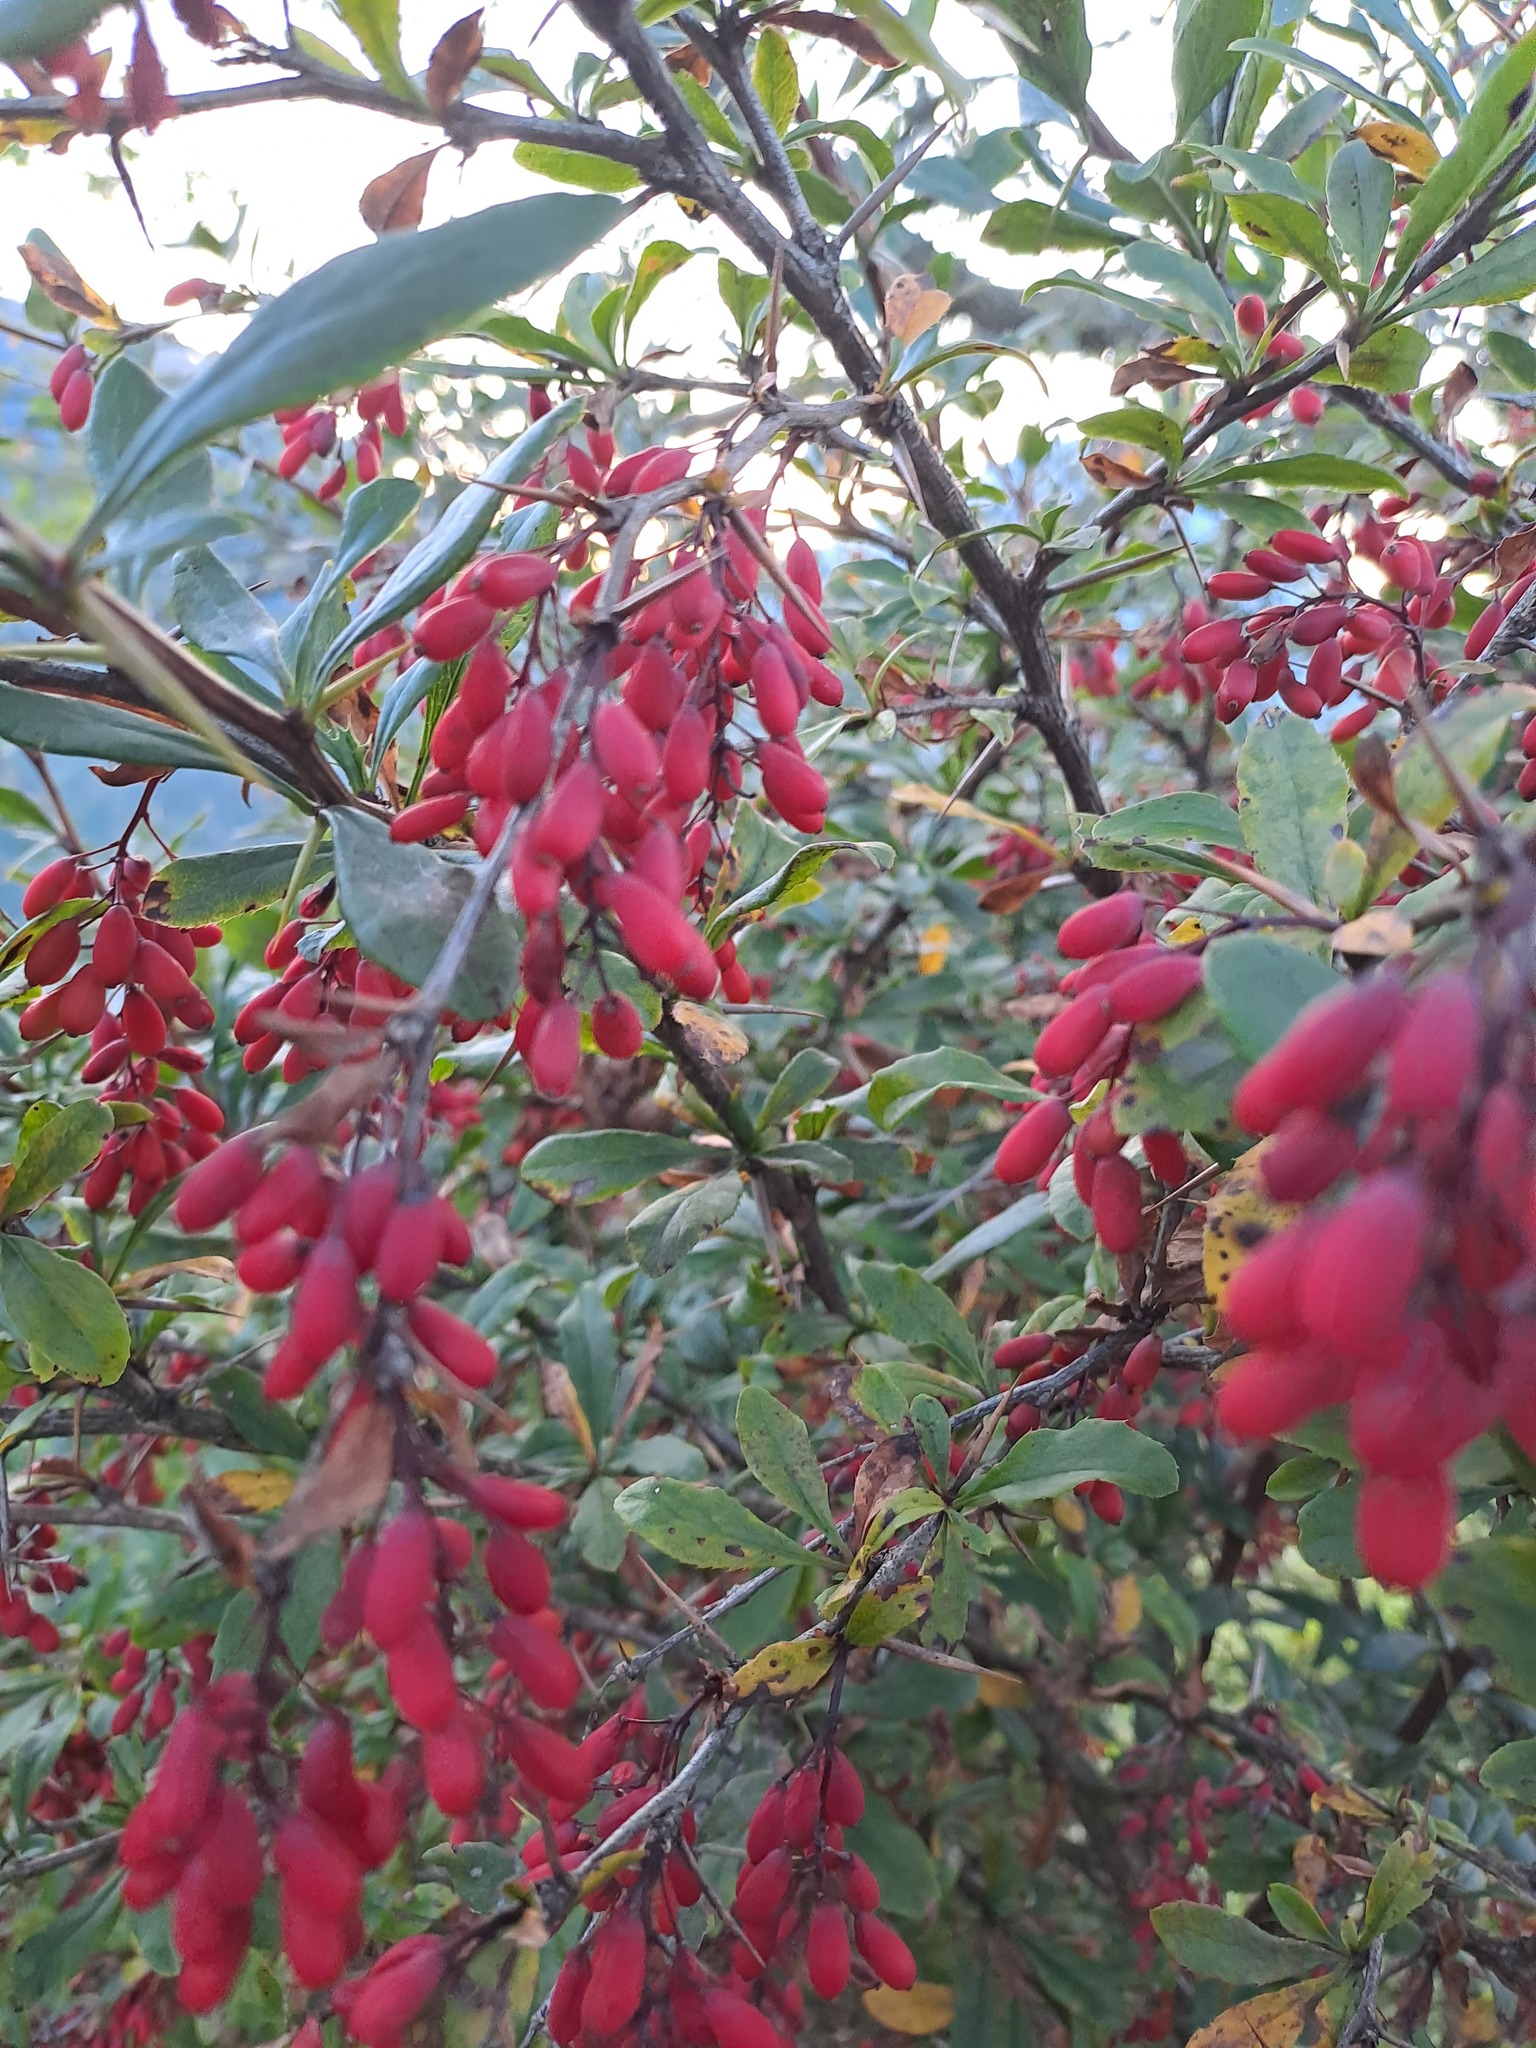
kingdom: Plantae
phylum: Tracheophyta
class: Magnoliopsida
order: Ranunculales
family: Berberidaceae
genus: Berberis
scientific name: Berberis vulgaris
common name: Barberry
